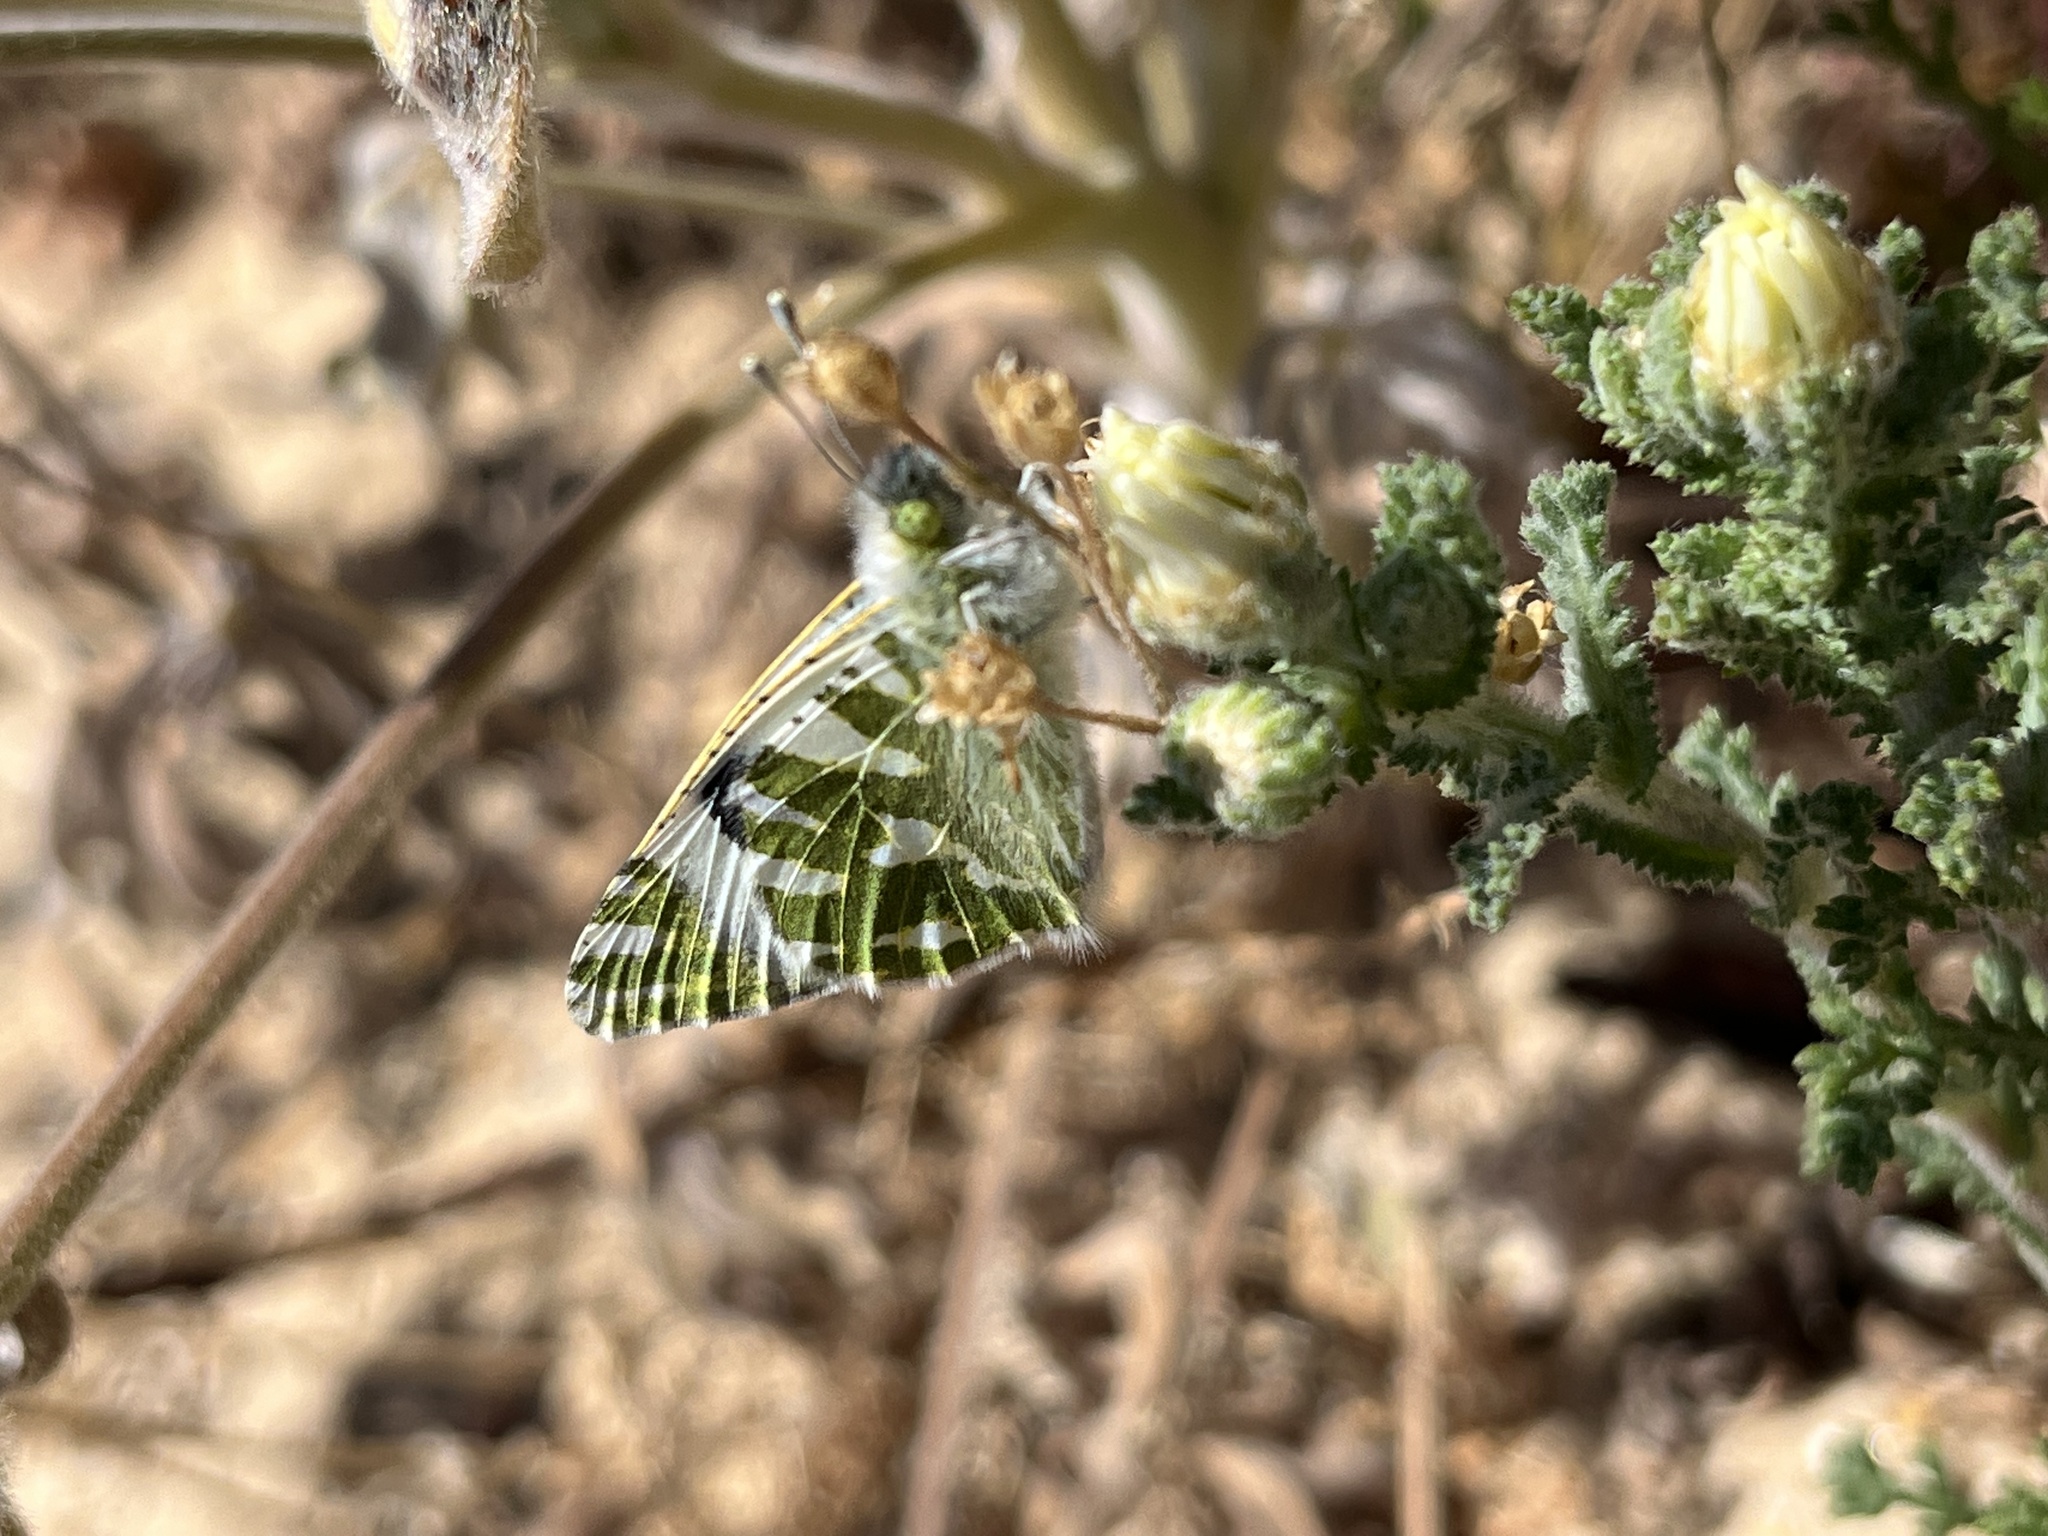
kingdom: Animalia
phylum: Arthropoda
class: Insecta
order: Lepidoptera
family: Pieridae
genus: Euchloe
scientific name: Euchloe belemia
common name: Green-striped white
